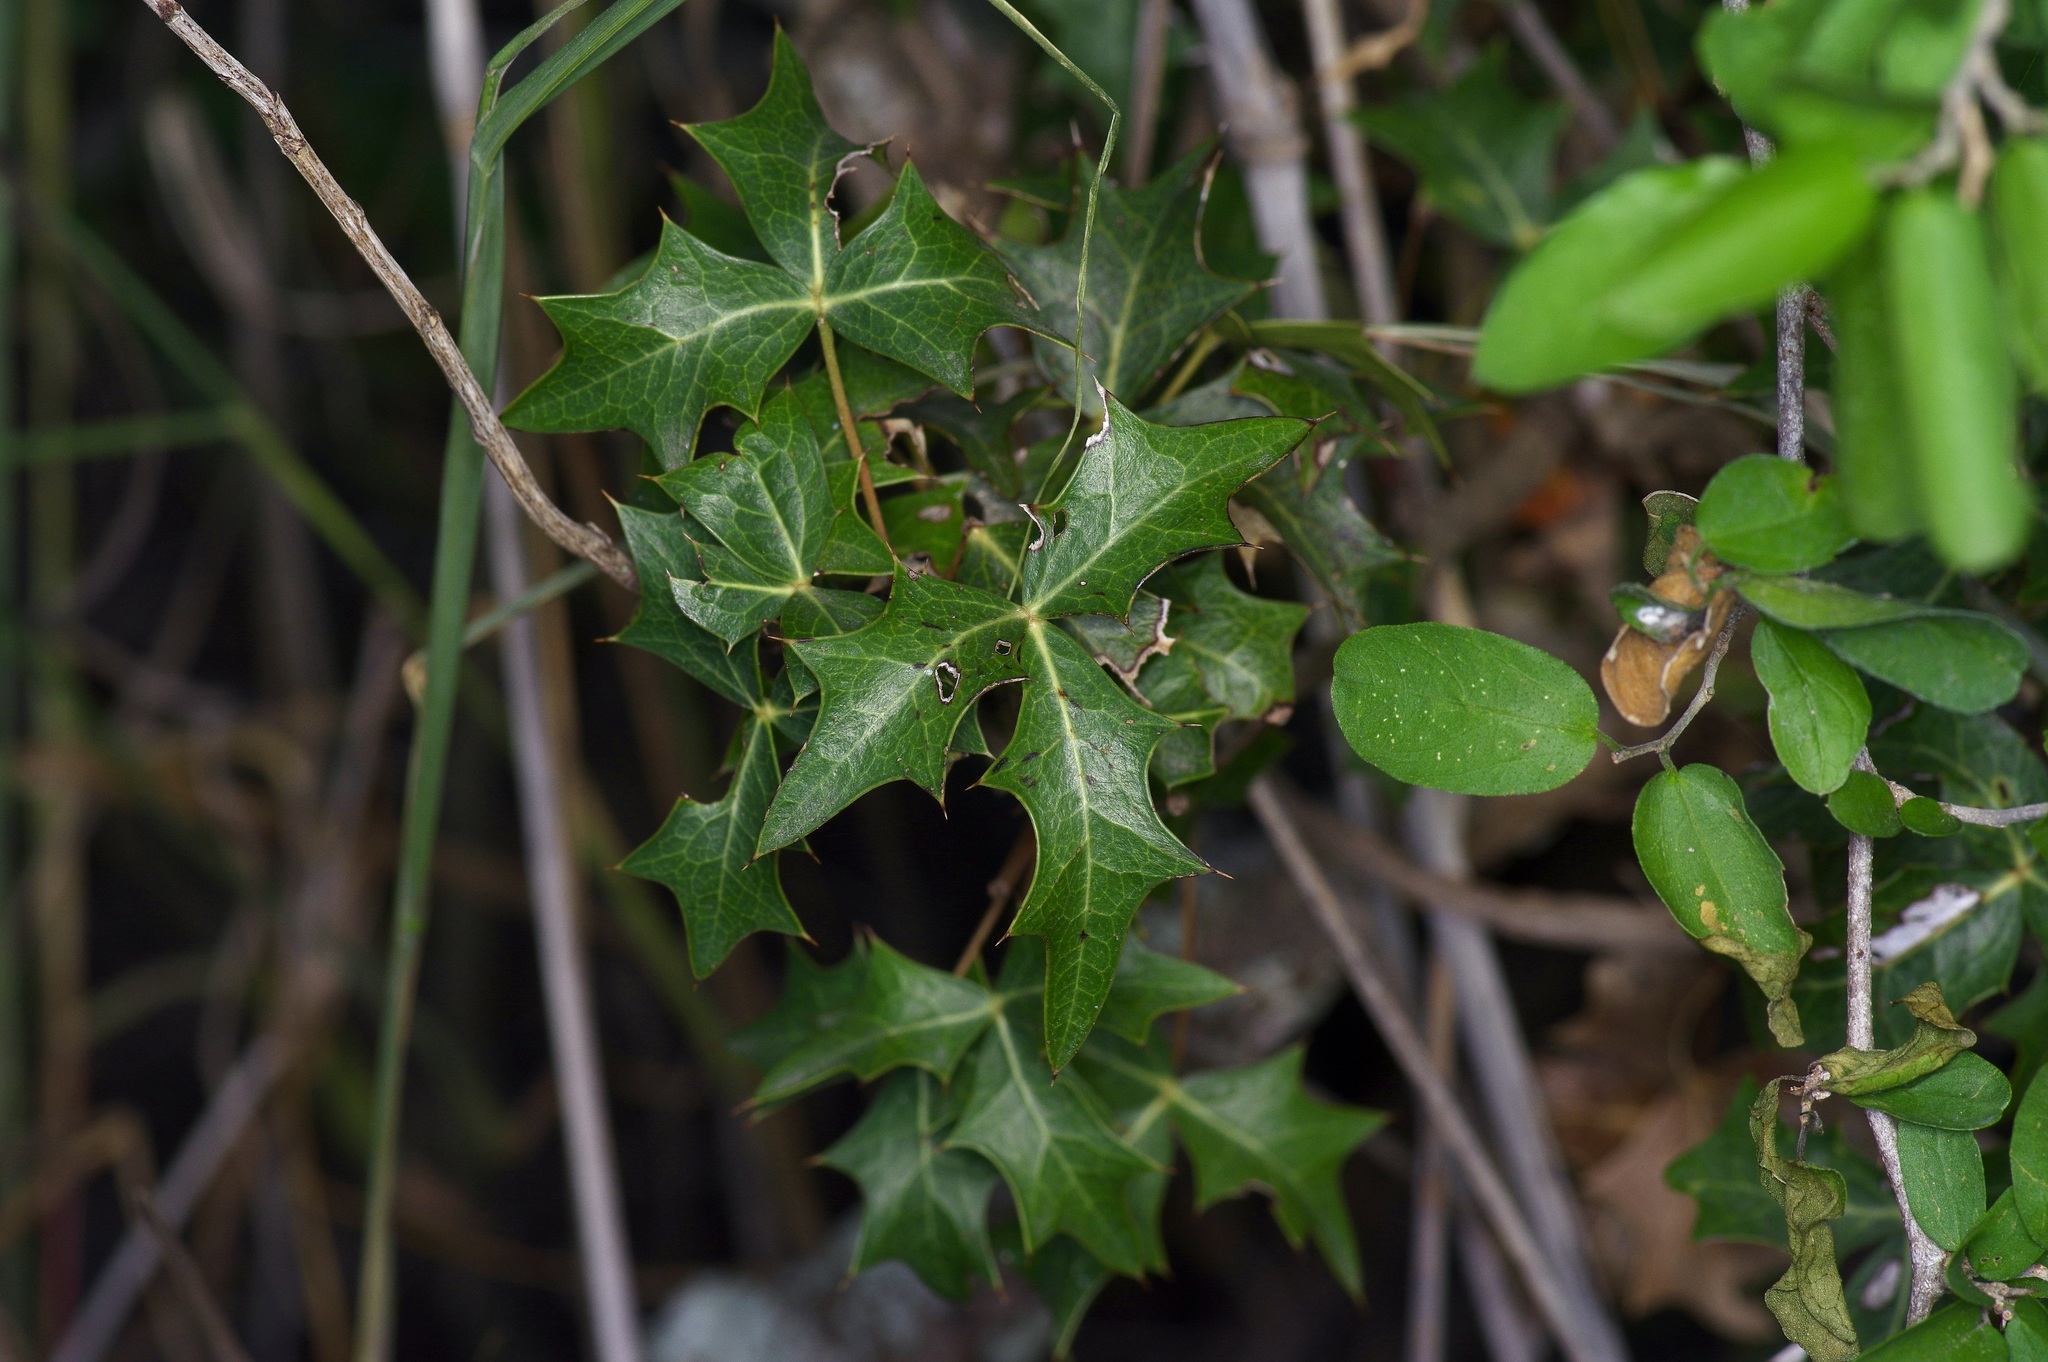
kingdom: Plantae
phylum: Tracheophyta
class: Magnoliopsida
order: Ranunculales
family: Berberidaceae
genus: Alloberberis
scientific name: Alloberberis trifoliolata
